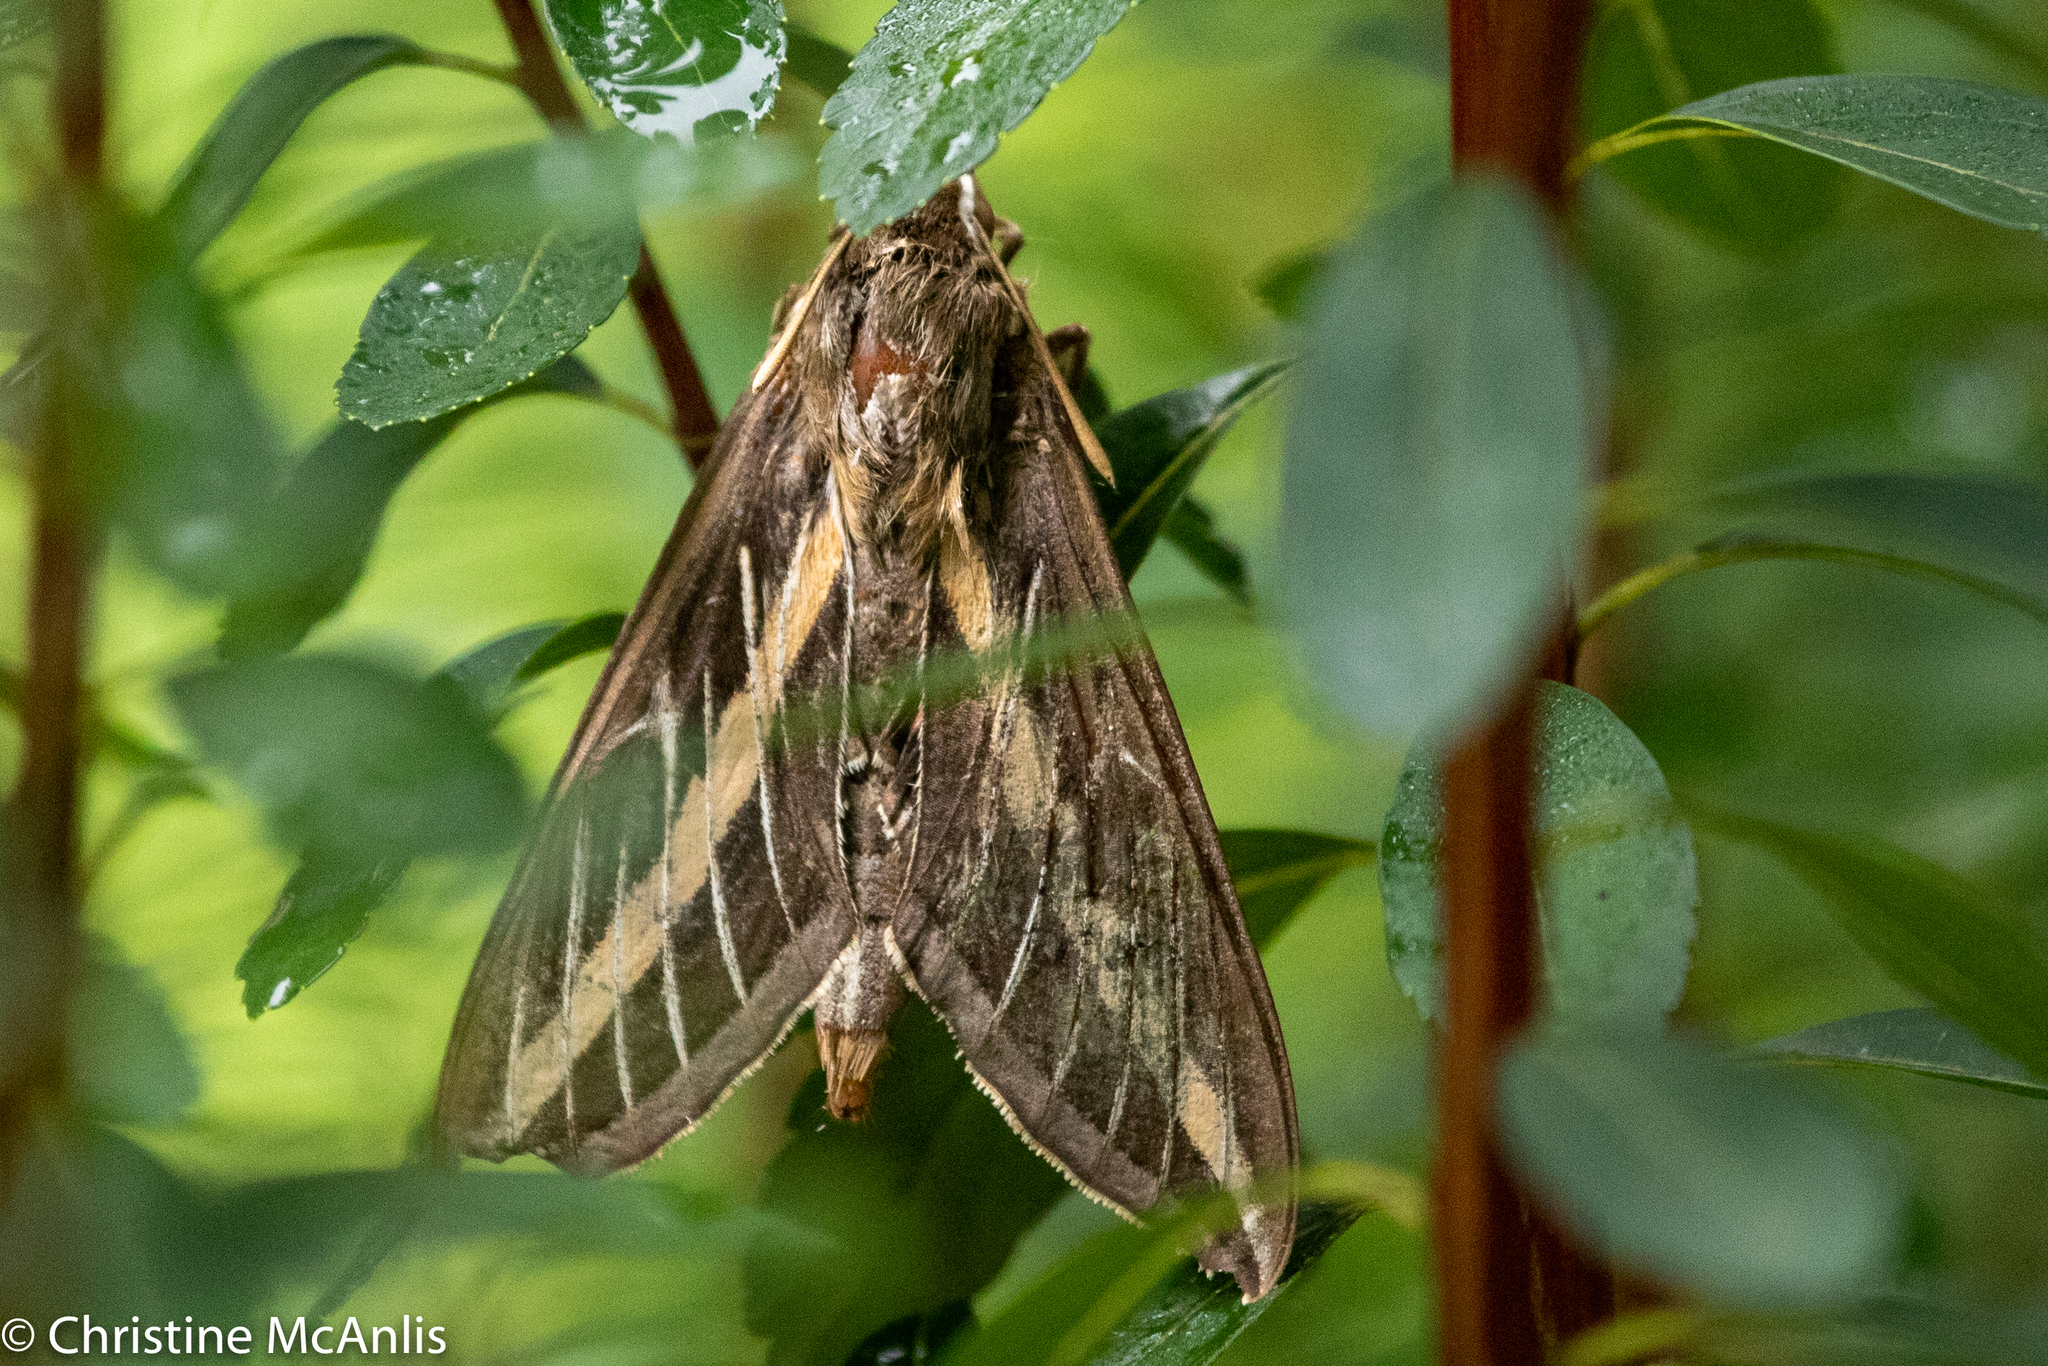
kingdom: Animalia
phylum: Arthropoda
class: Insecta
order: Lepidoptera
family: Sphingidae
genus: Hyles
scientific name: Hyles lineata
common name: White-lined sphinx
